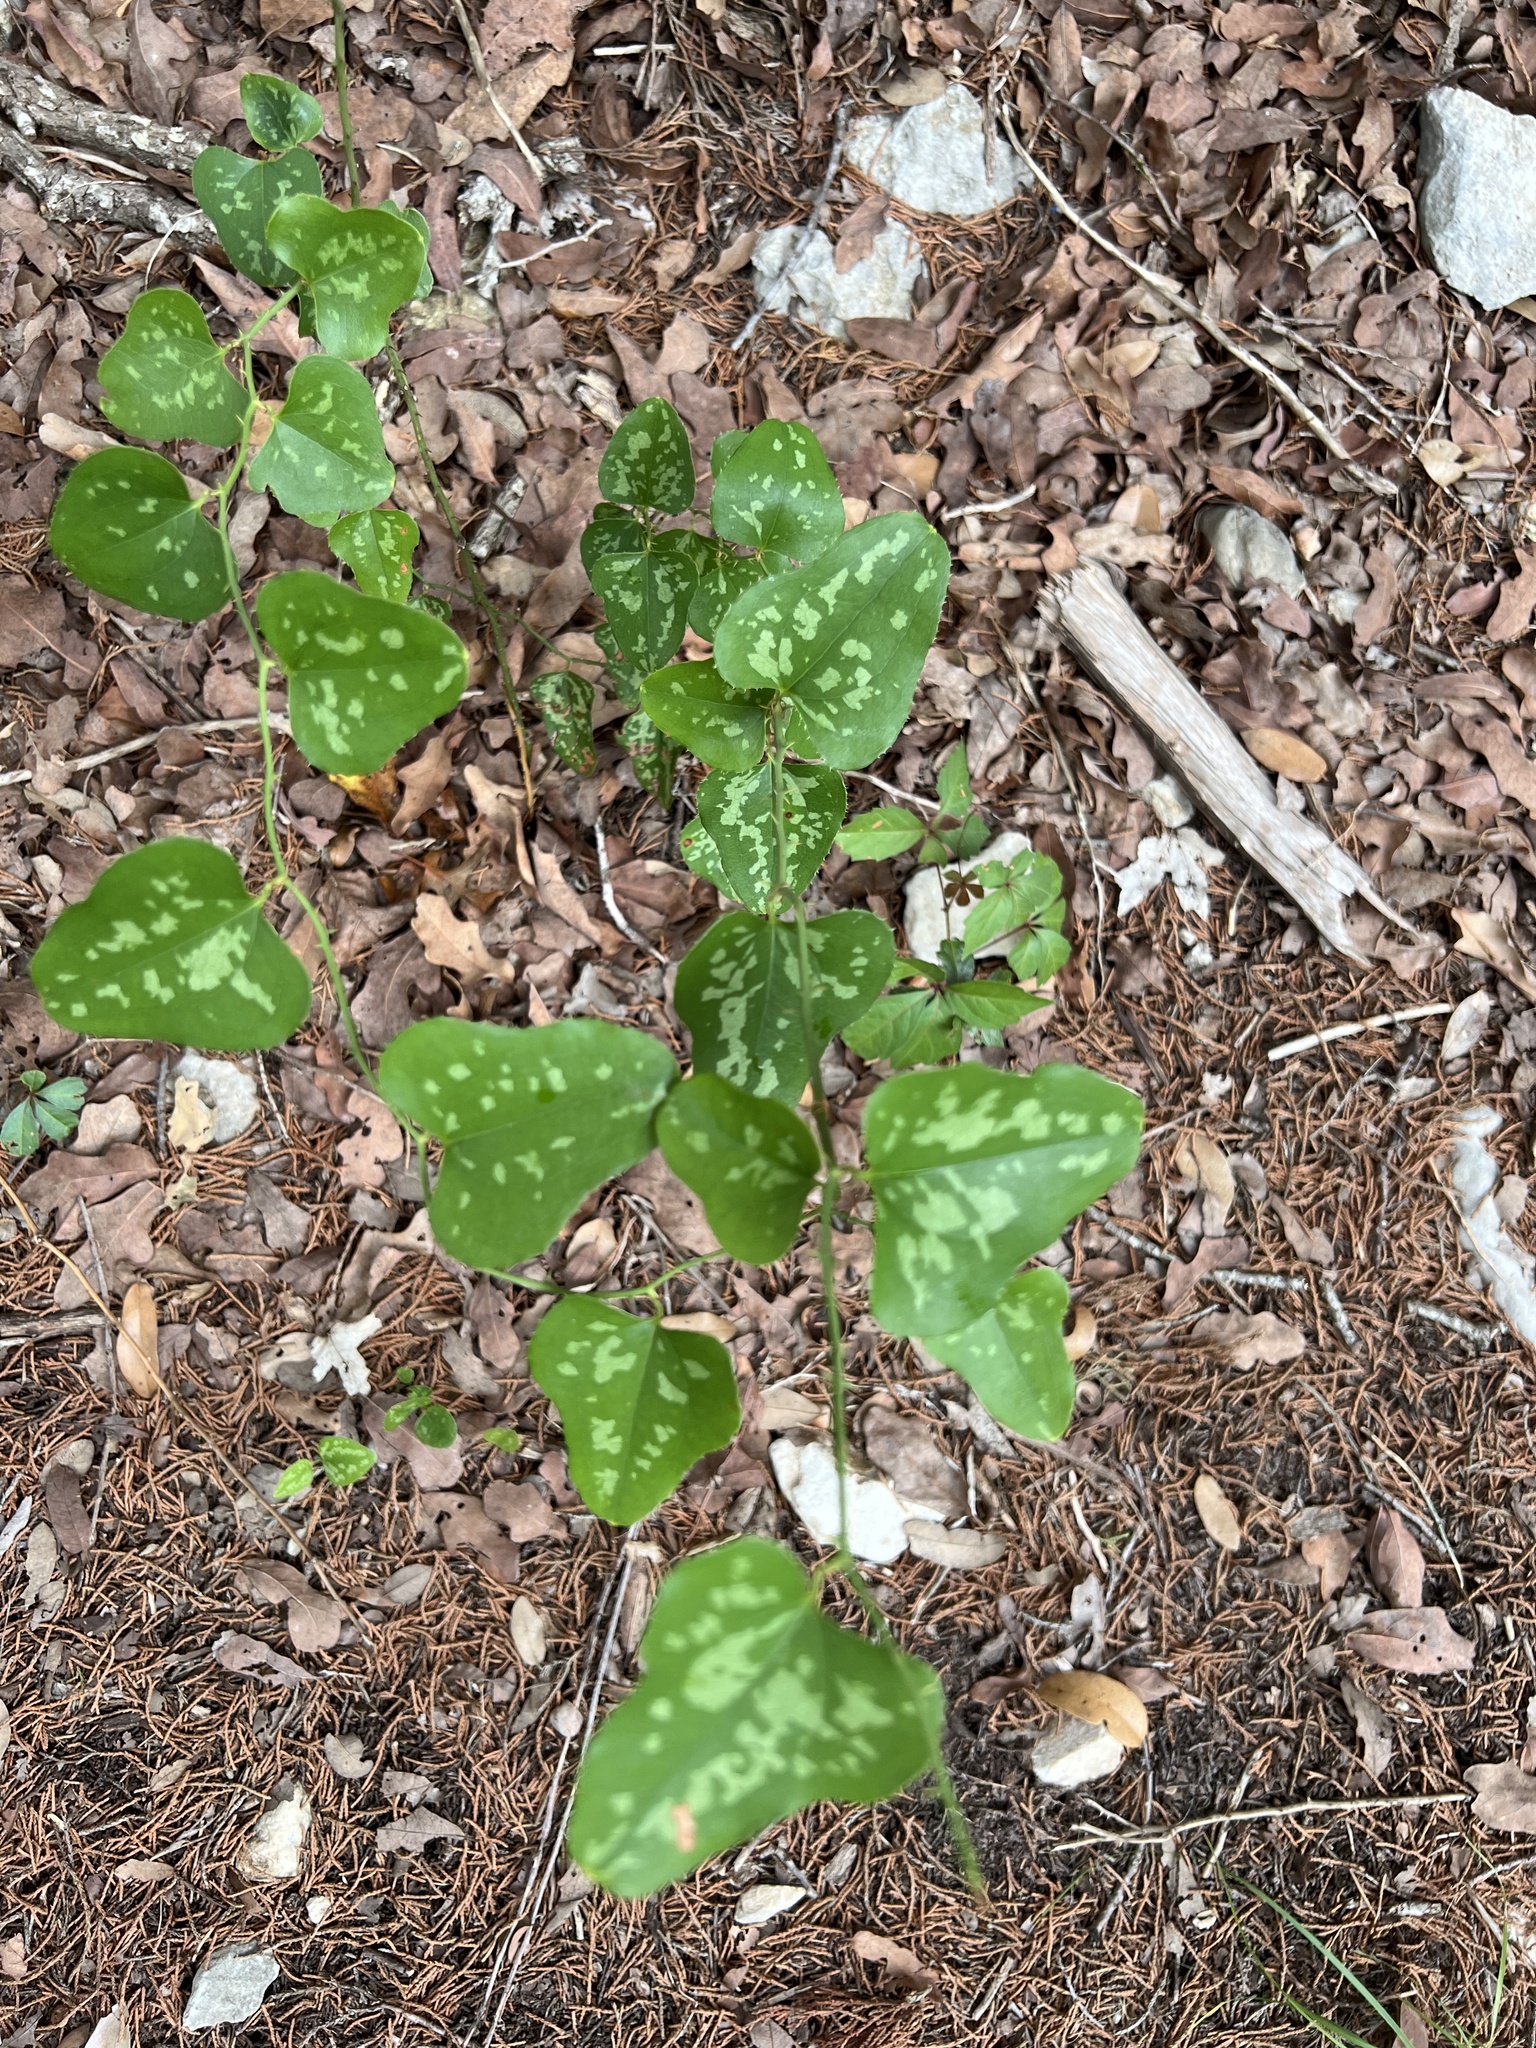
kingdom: Plantae
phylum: Tracheophyta
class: Liliopsida
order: Liliales
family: Smilacaceae
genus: Smilax
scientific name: Smilax bona-nox
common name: Catbrier
